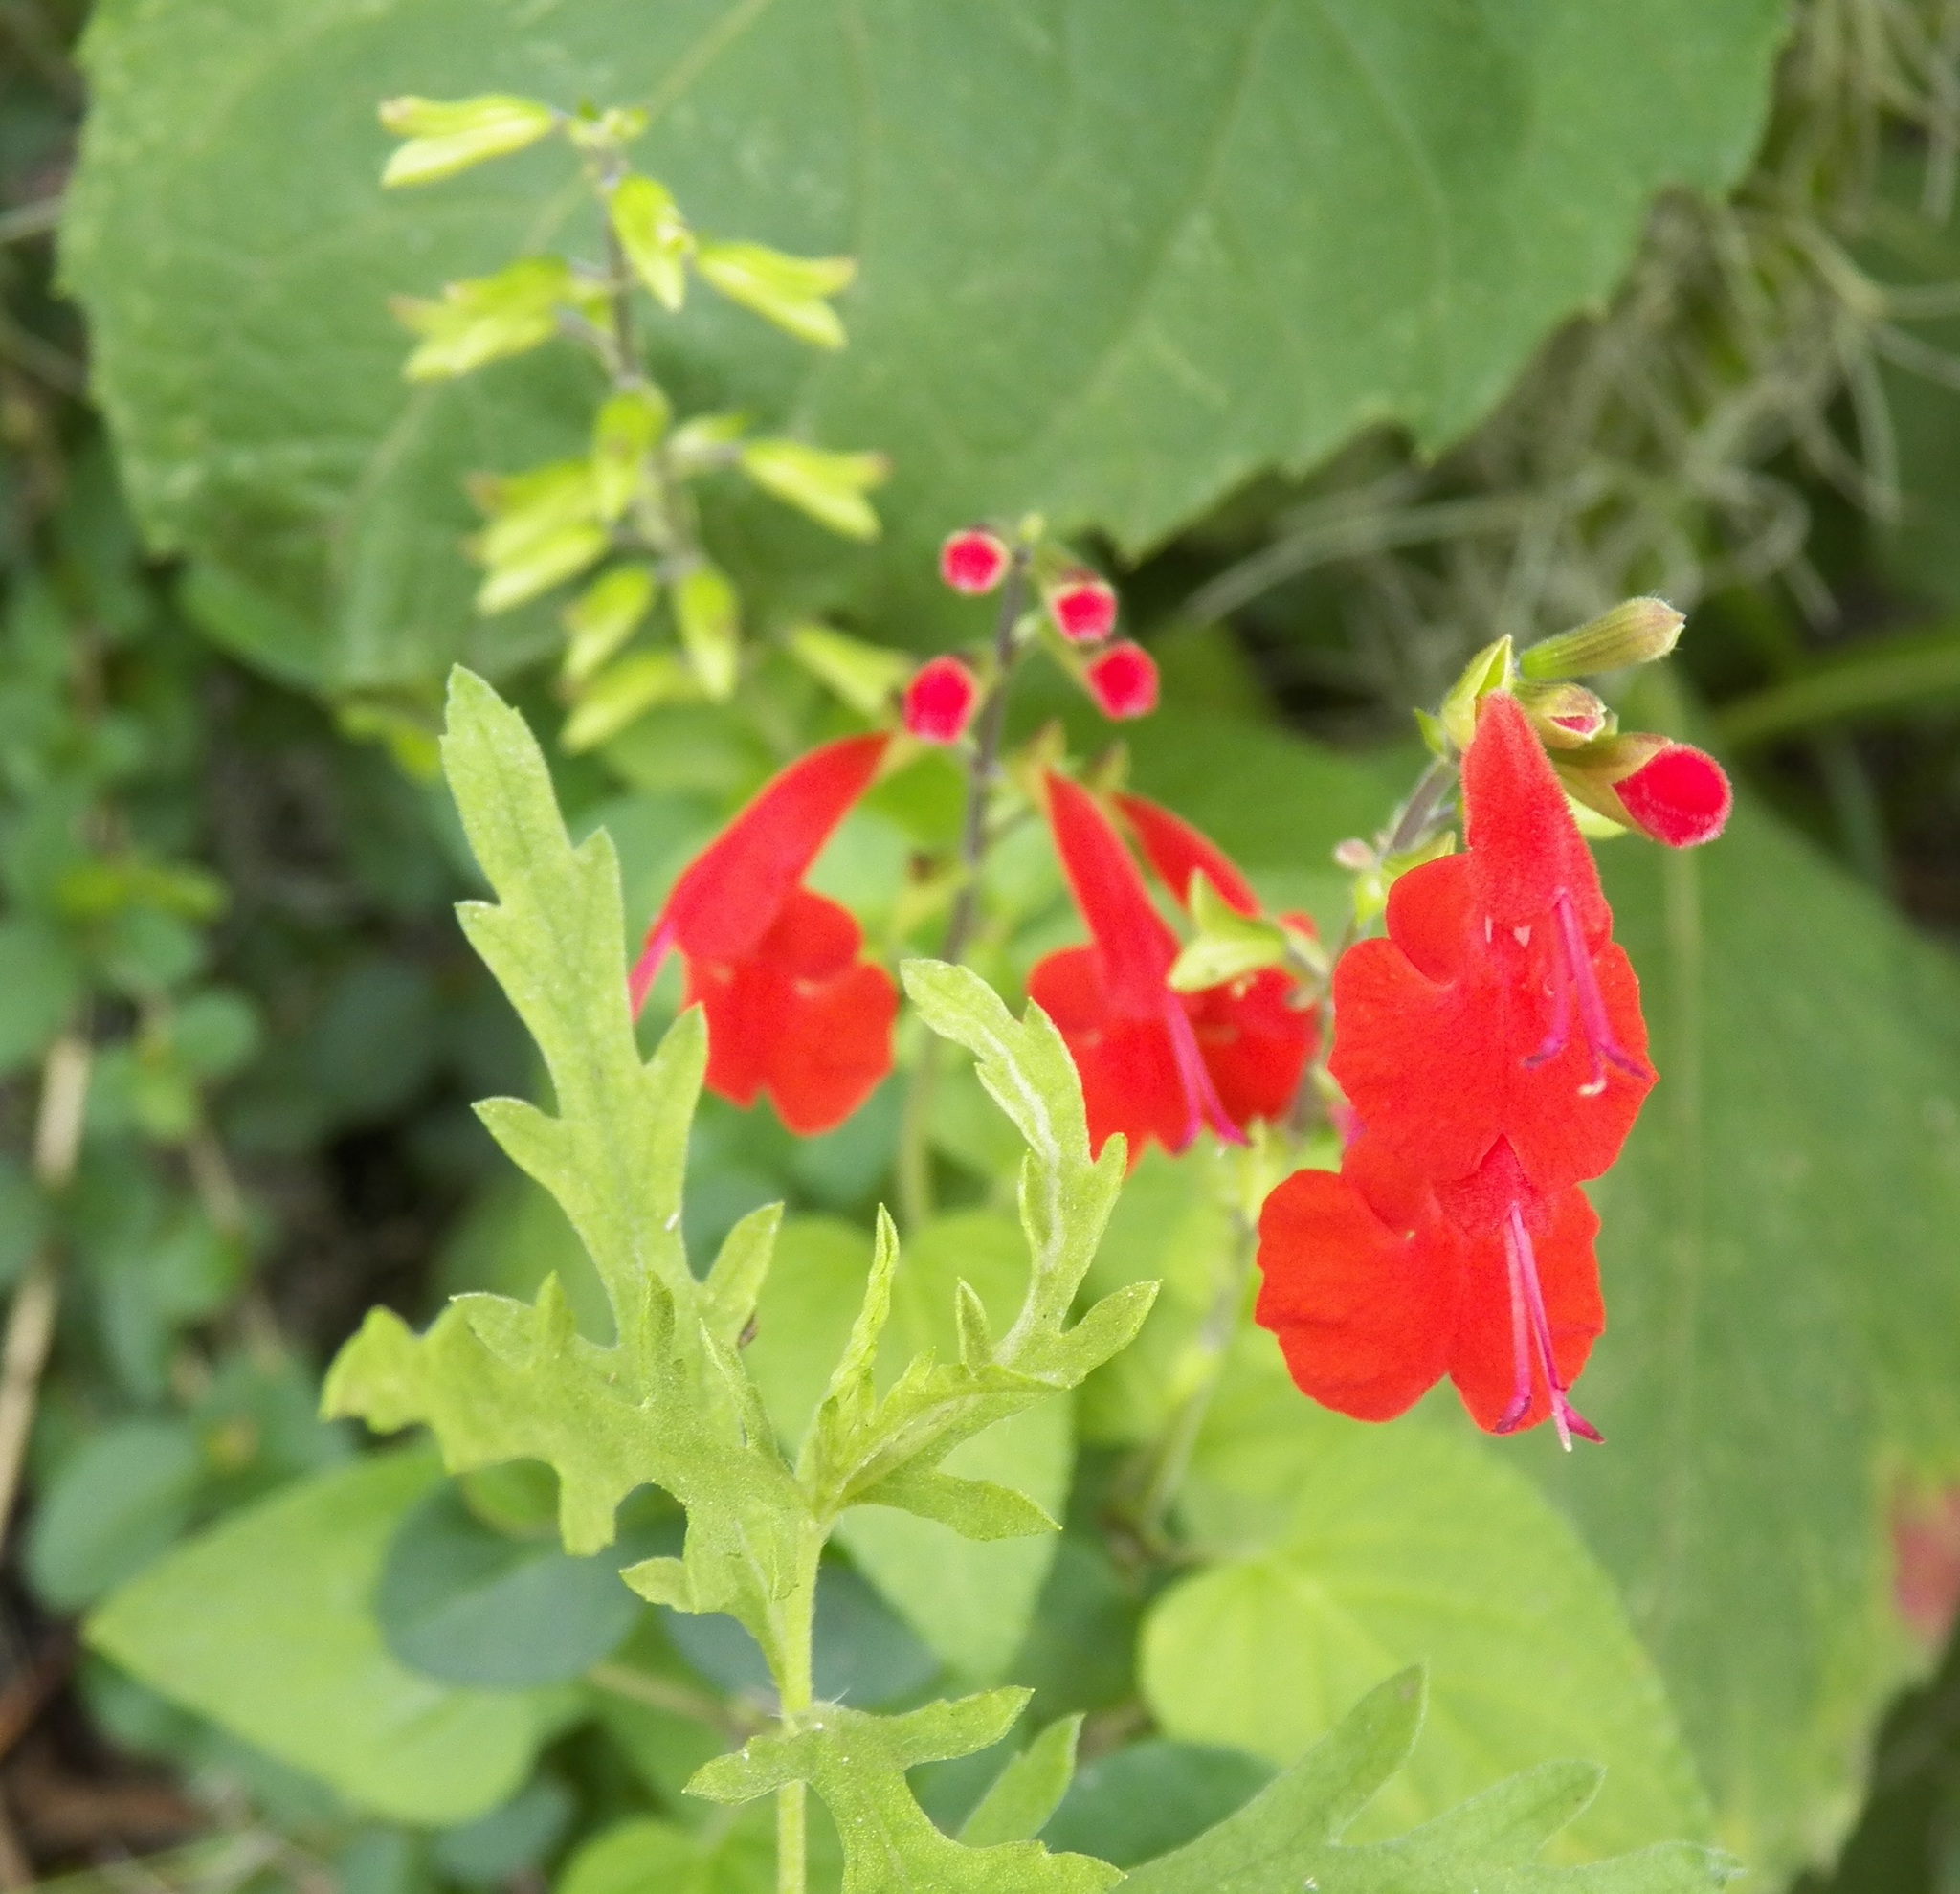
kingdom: Plantae
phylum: Tracheophyta
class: Magnoliopsida
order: Lamiales
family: Lamiaceae
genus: Salvia
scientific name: Salvia coccinea
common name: Blood sage
